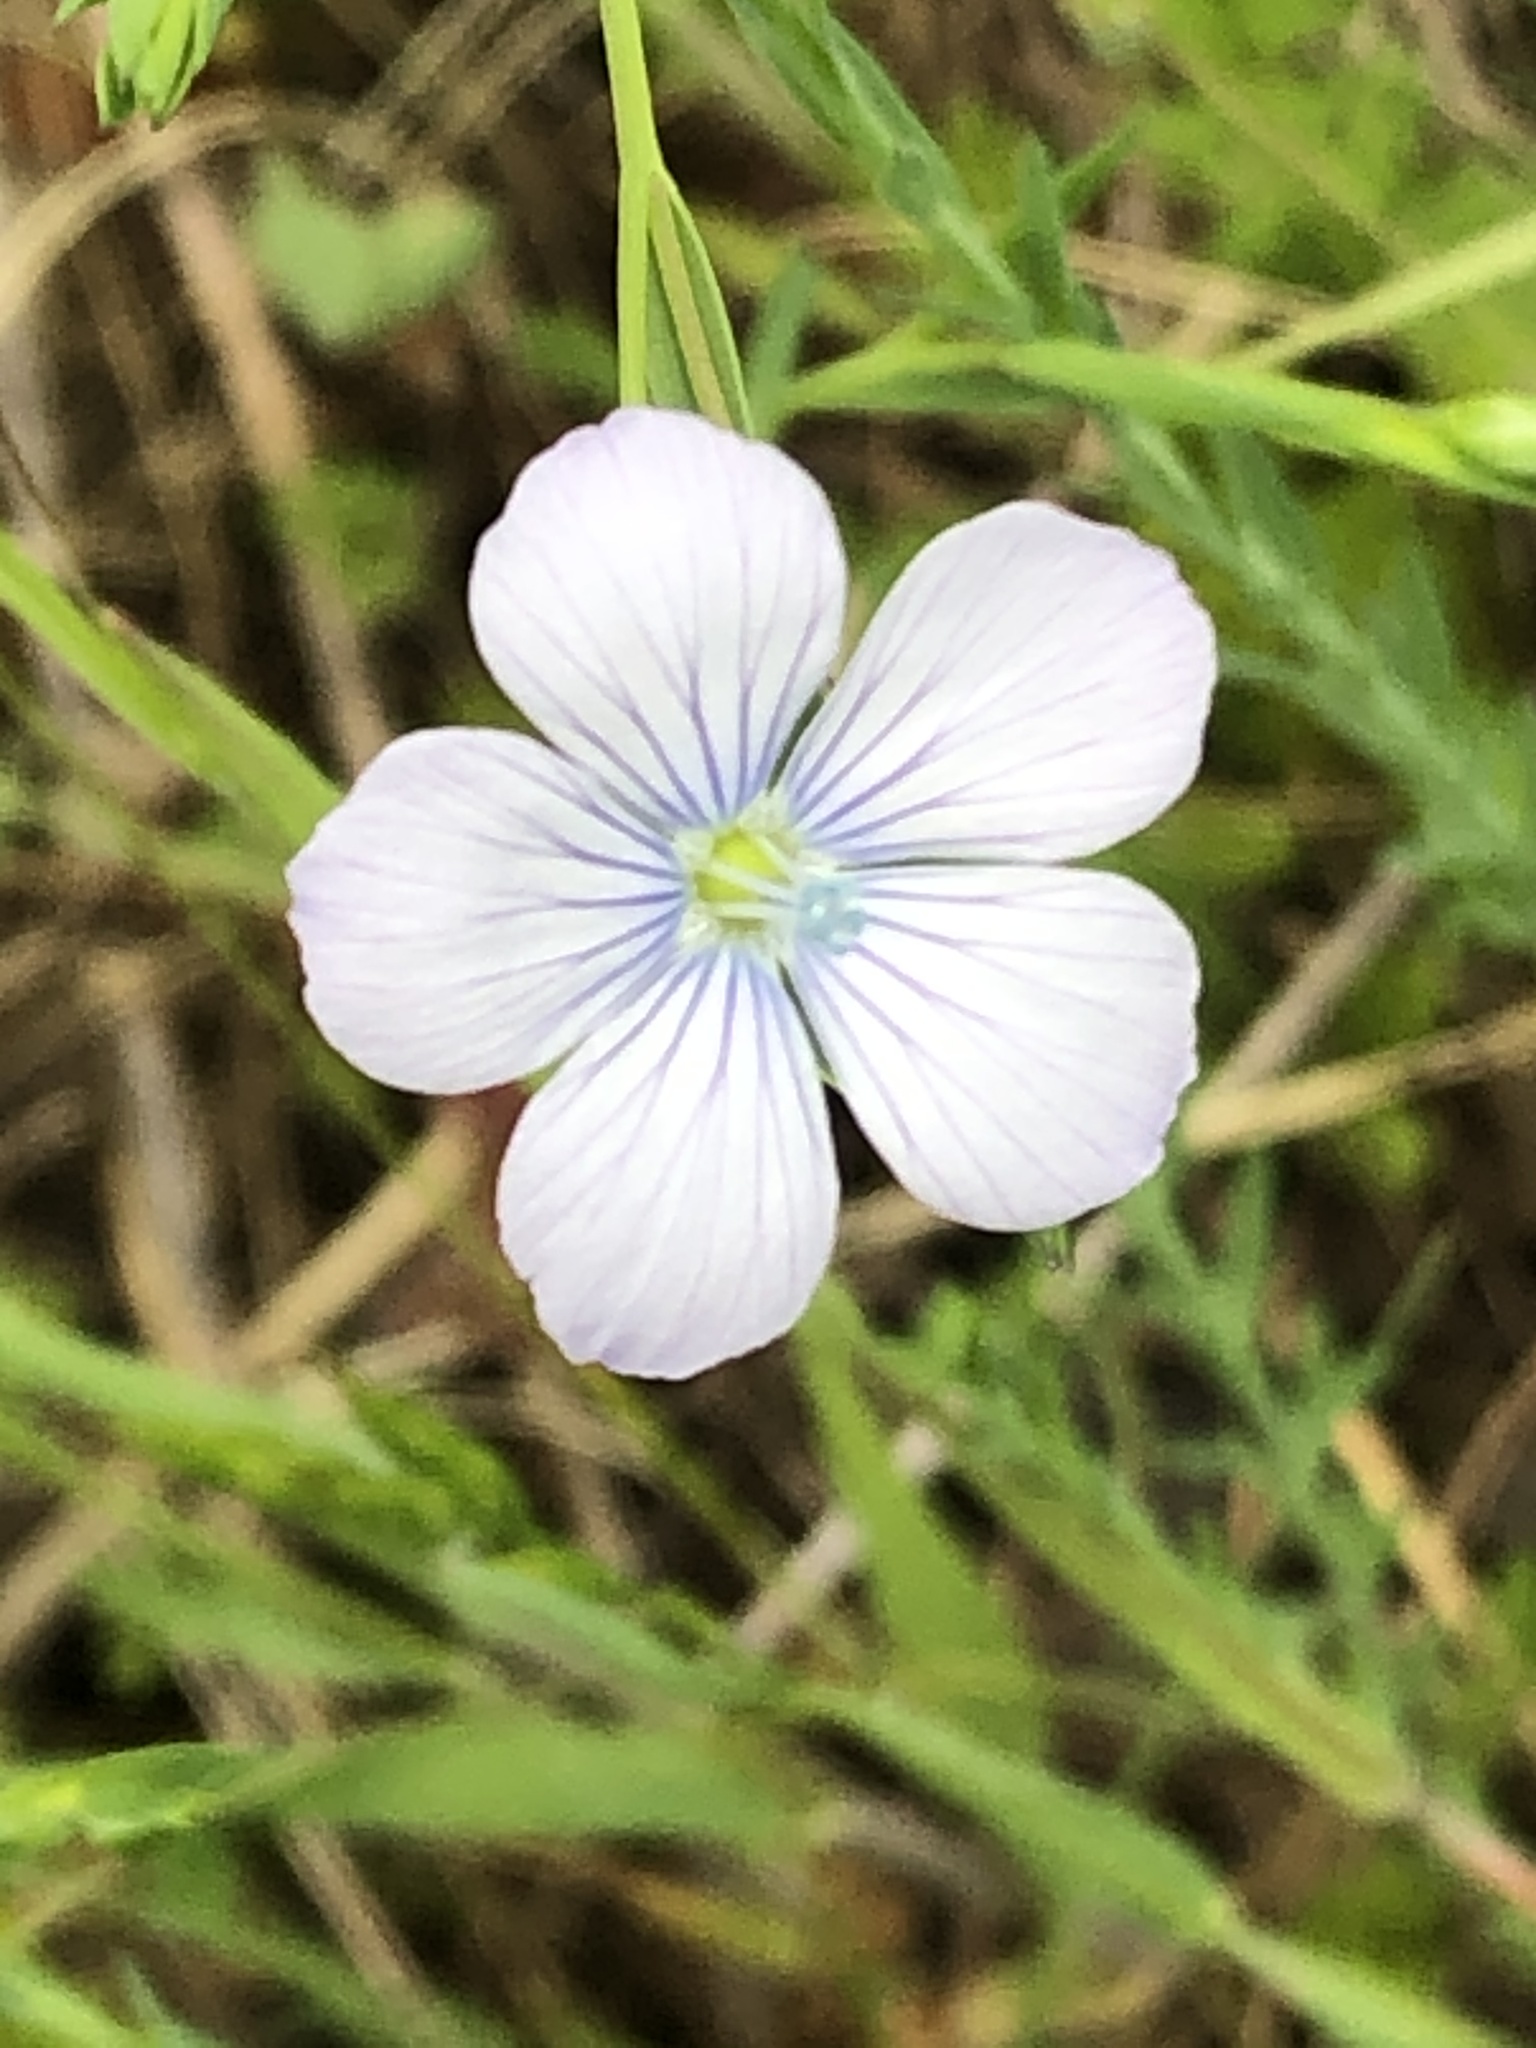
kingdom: Plantae
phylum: Tracheophyta
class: Magnoliopsida
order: Malpighiales
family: Linaceae
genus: Linum
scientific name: Linum bienne
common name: Pale flax
